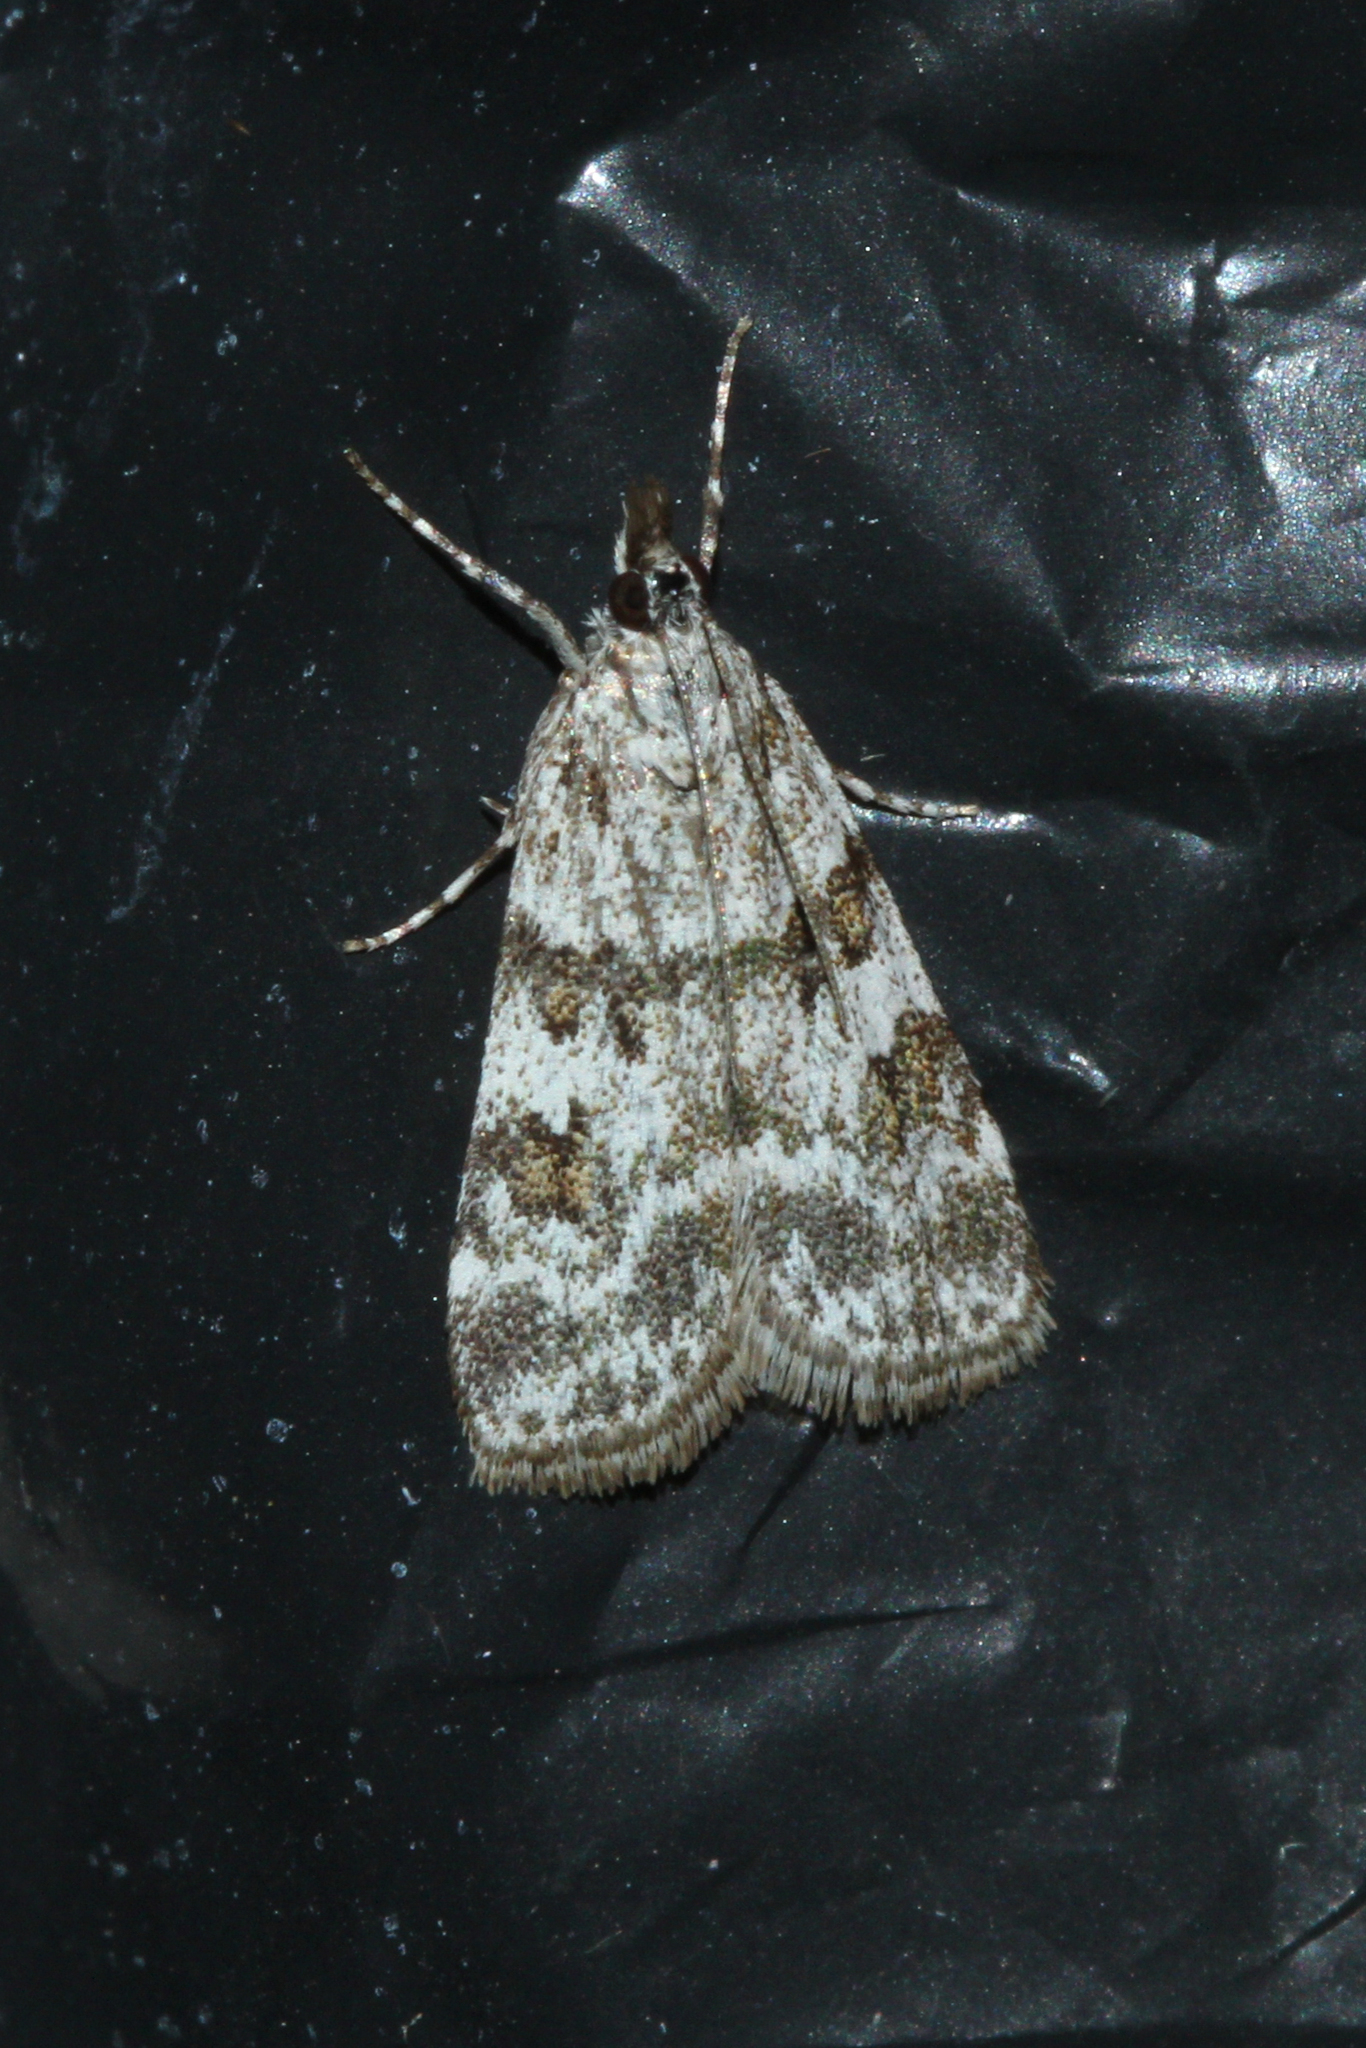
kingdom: Animalia
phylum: Arthropoda
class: Insecta
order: Lepidoptera
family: Crambidae
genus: Scoparia
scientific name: Scoparia ambigualis
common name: Common grey
